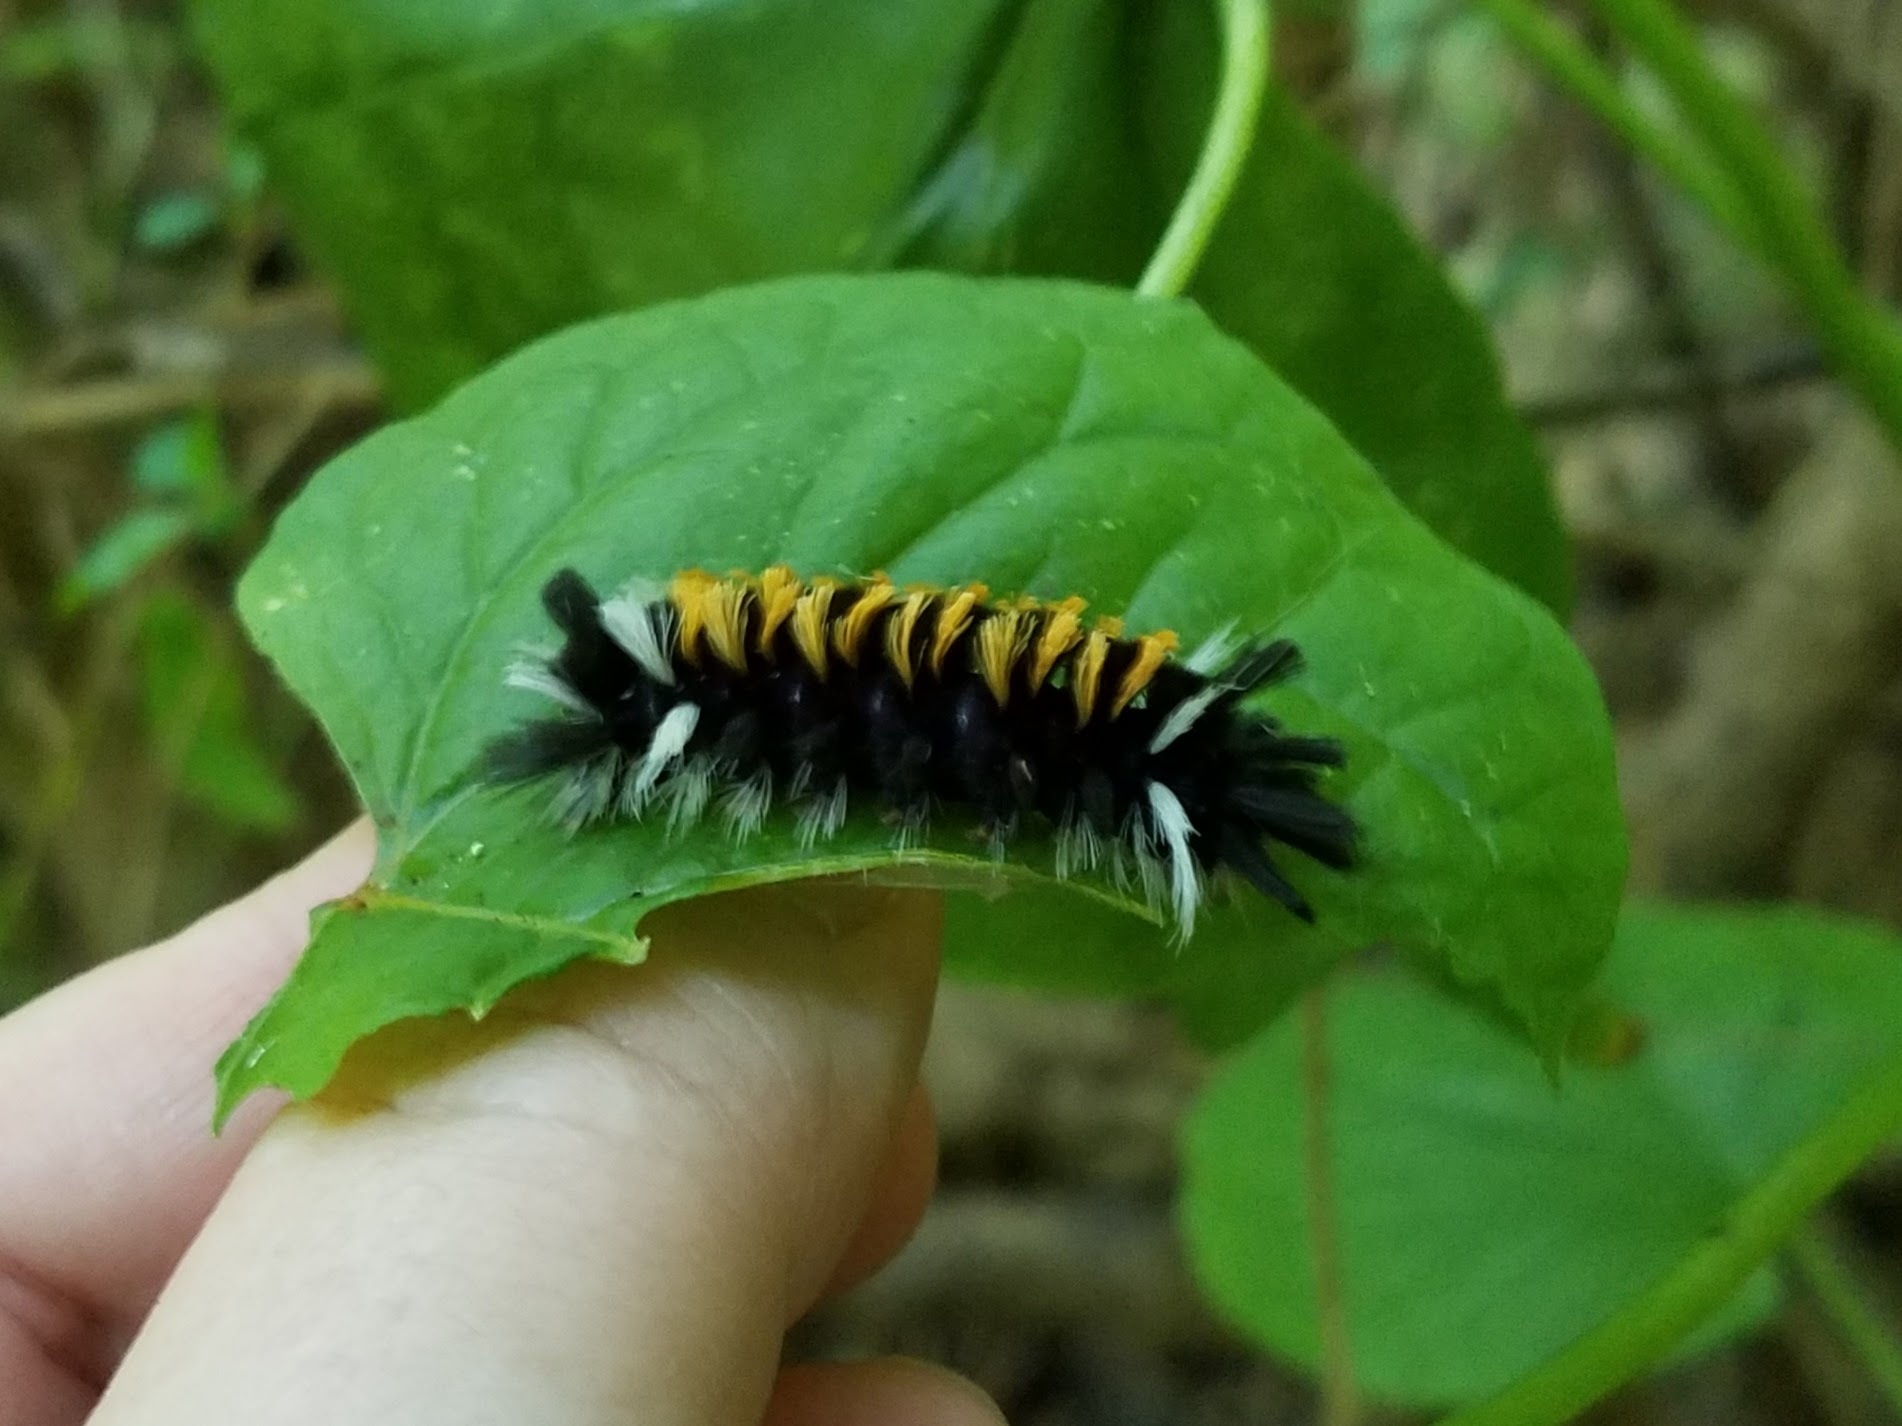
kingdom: Animalia
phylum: Arthropoda
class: Insecta
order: Lepidoptera
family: Erebidae
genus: Euchaetes
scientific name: Euchaetes egle
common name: Milkweed tussock moth
